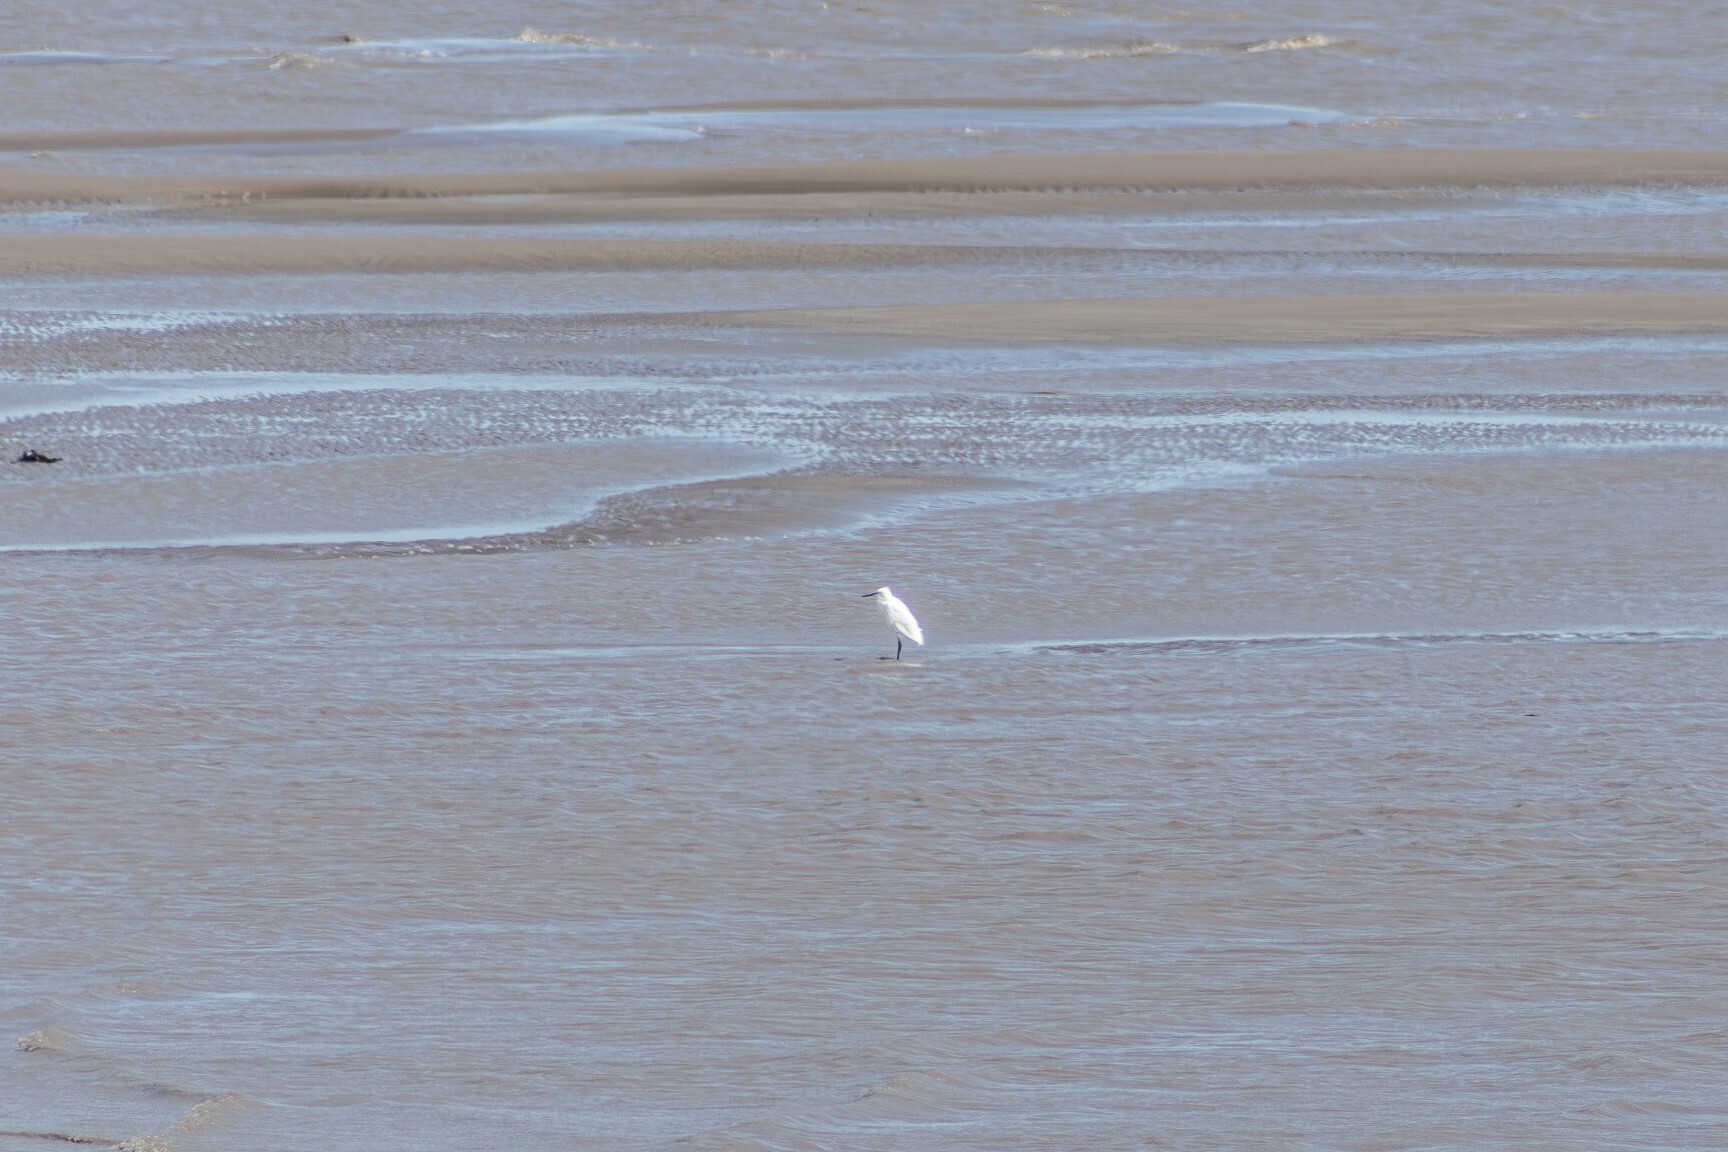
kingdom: Animalia
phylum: Chordata
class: Aves
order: Pelecaniformes
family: Ardeidae
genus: Egretta
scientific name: Egretta garzetta
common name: Little egret
